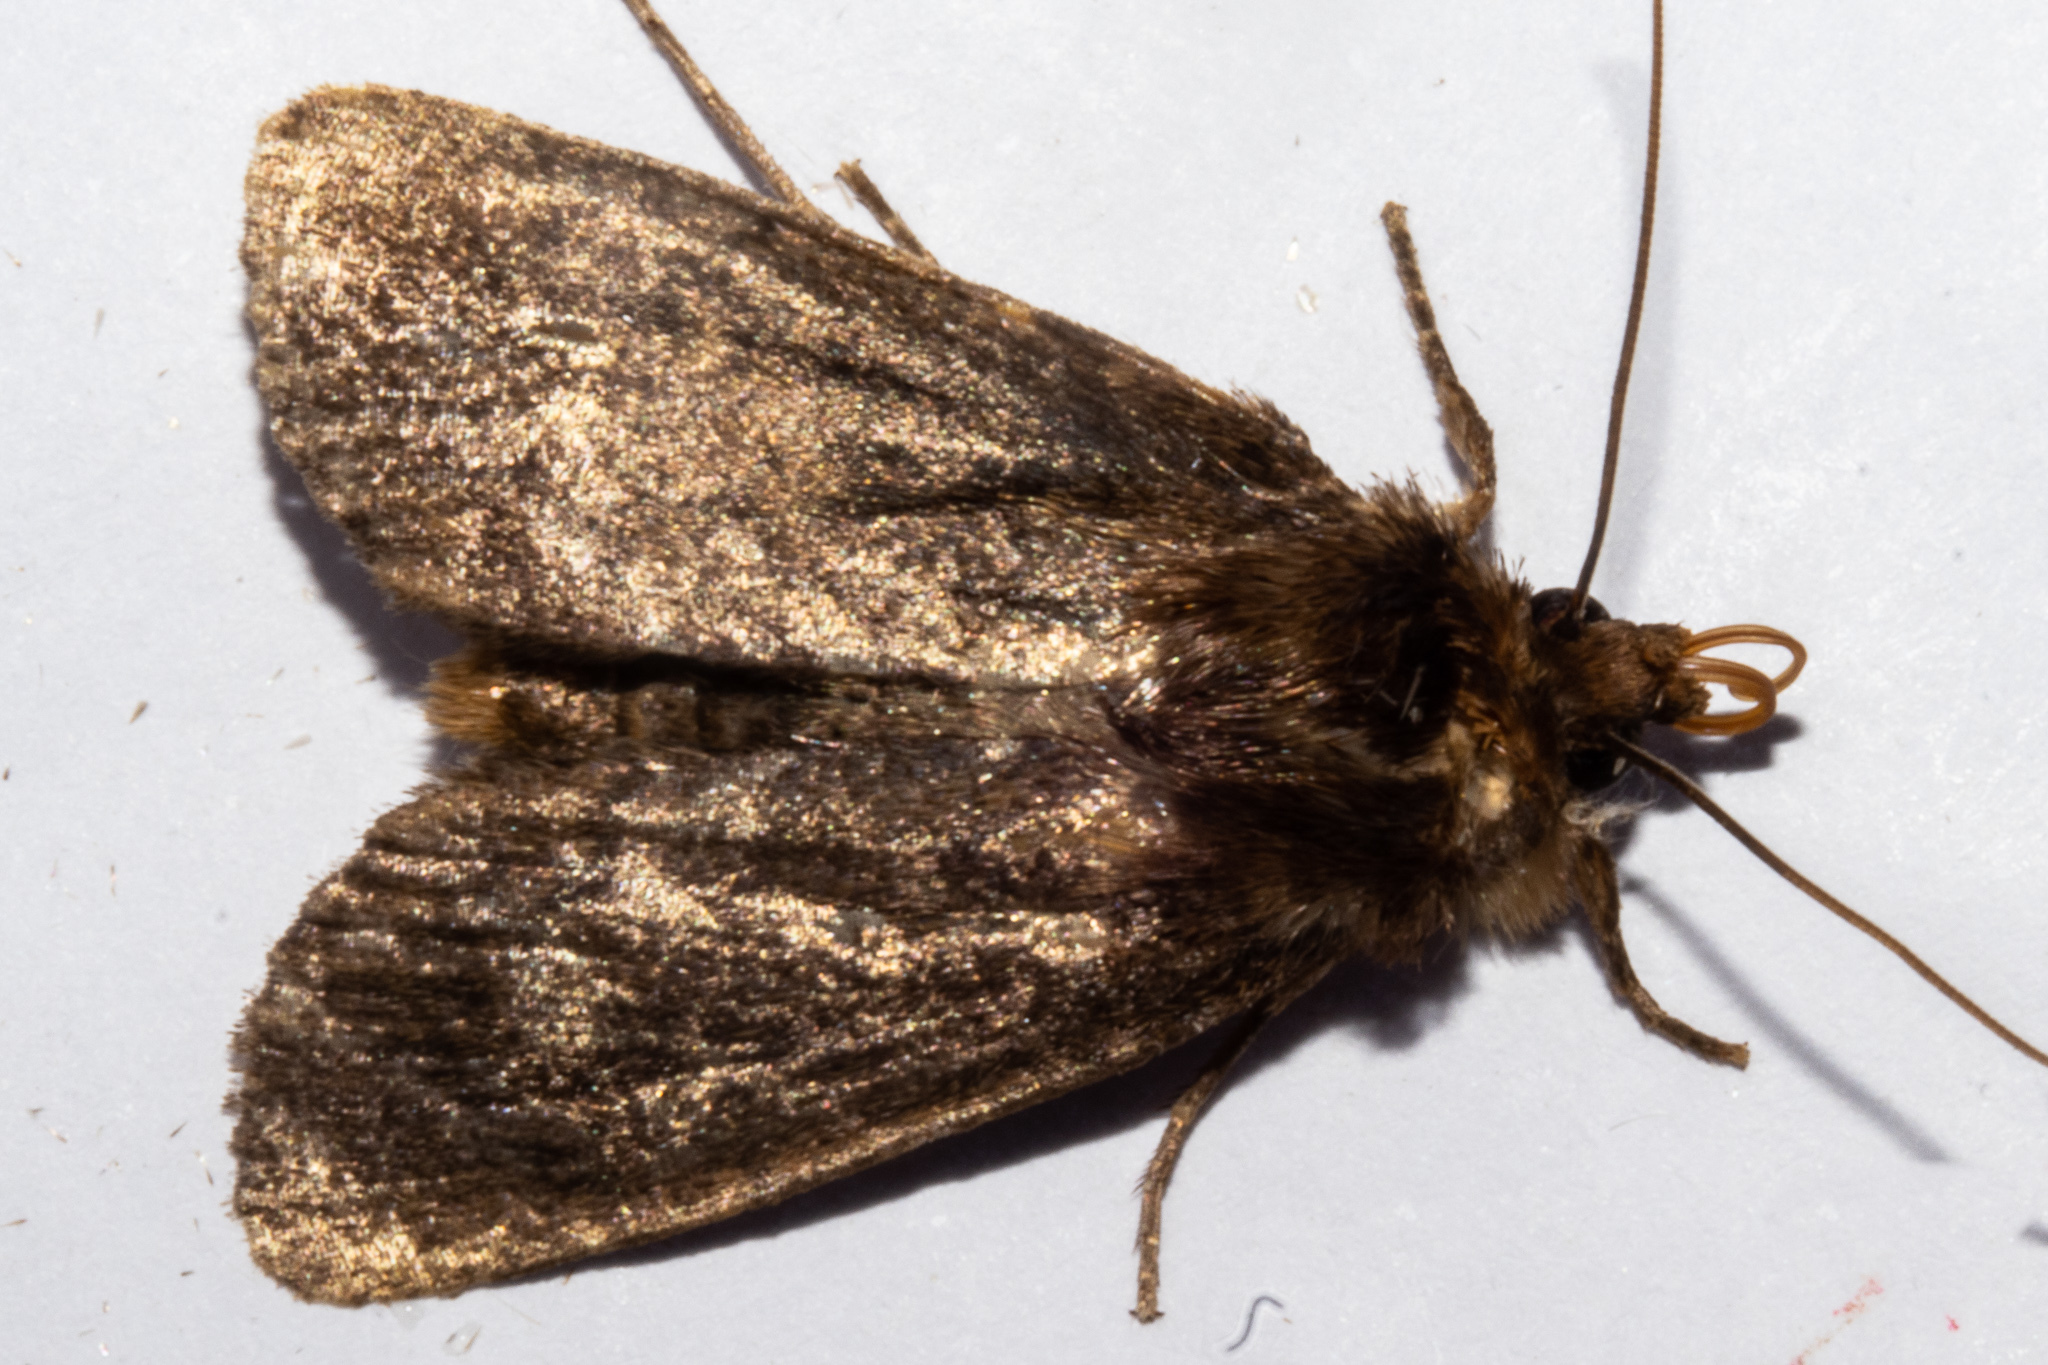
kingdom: Animalia
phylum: Arthropoda
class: Insecta
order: Lepidoptera
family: Noctuidae
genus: Bityla
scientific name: Bityla defigurata
